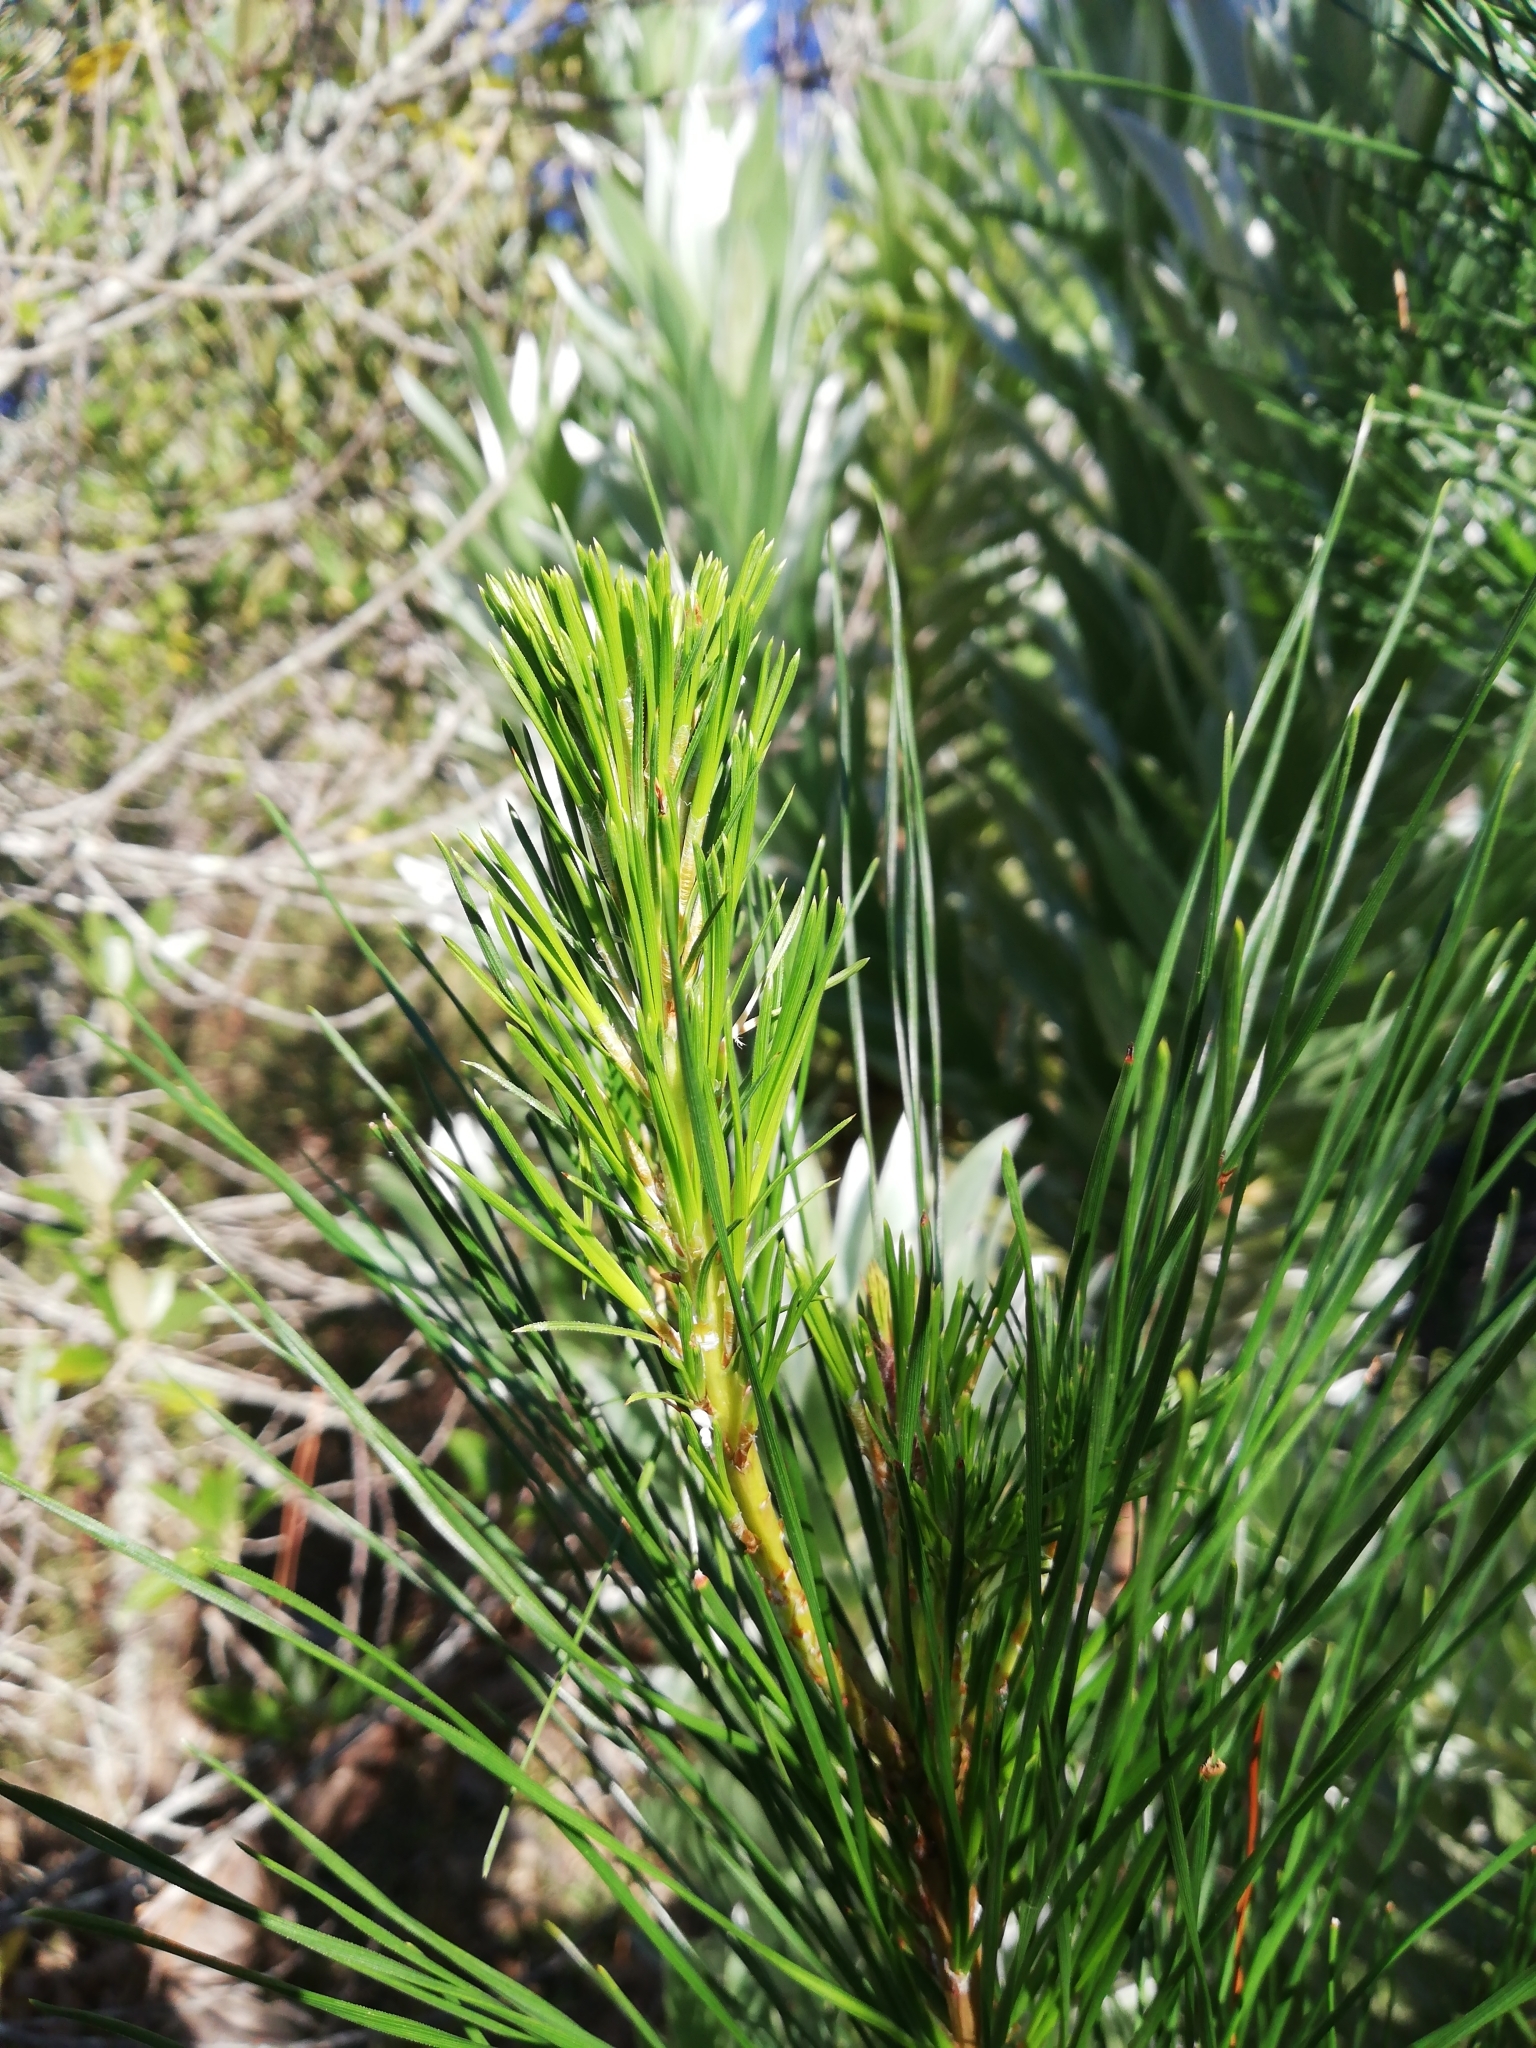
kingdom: Plantae
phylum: Tracheophyta
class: Pinopsida
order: Pinales
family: Pinaceae
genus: Pinus
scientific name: Pinus radiata
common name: Monterey pine
